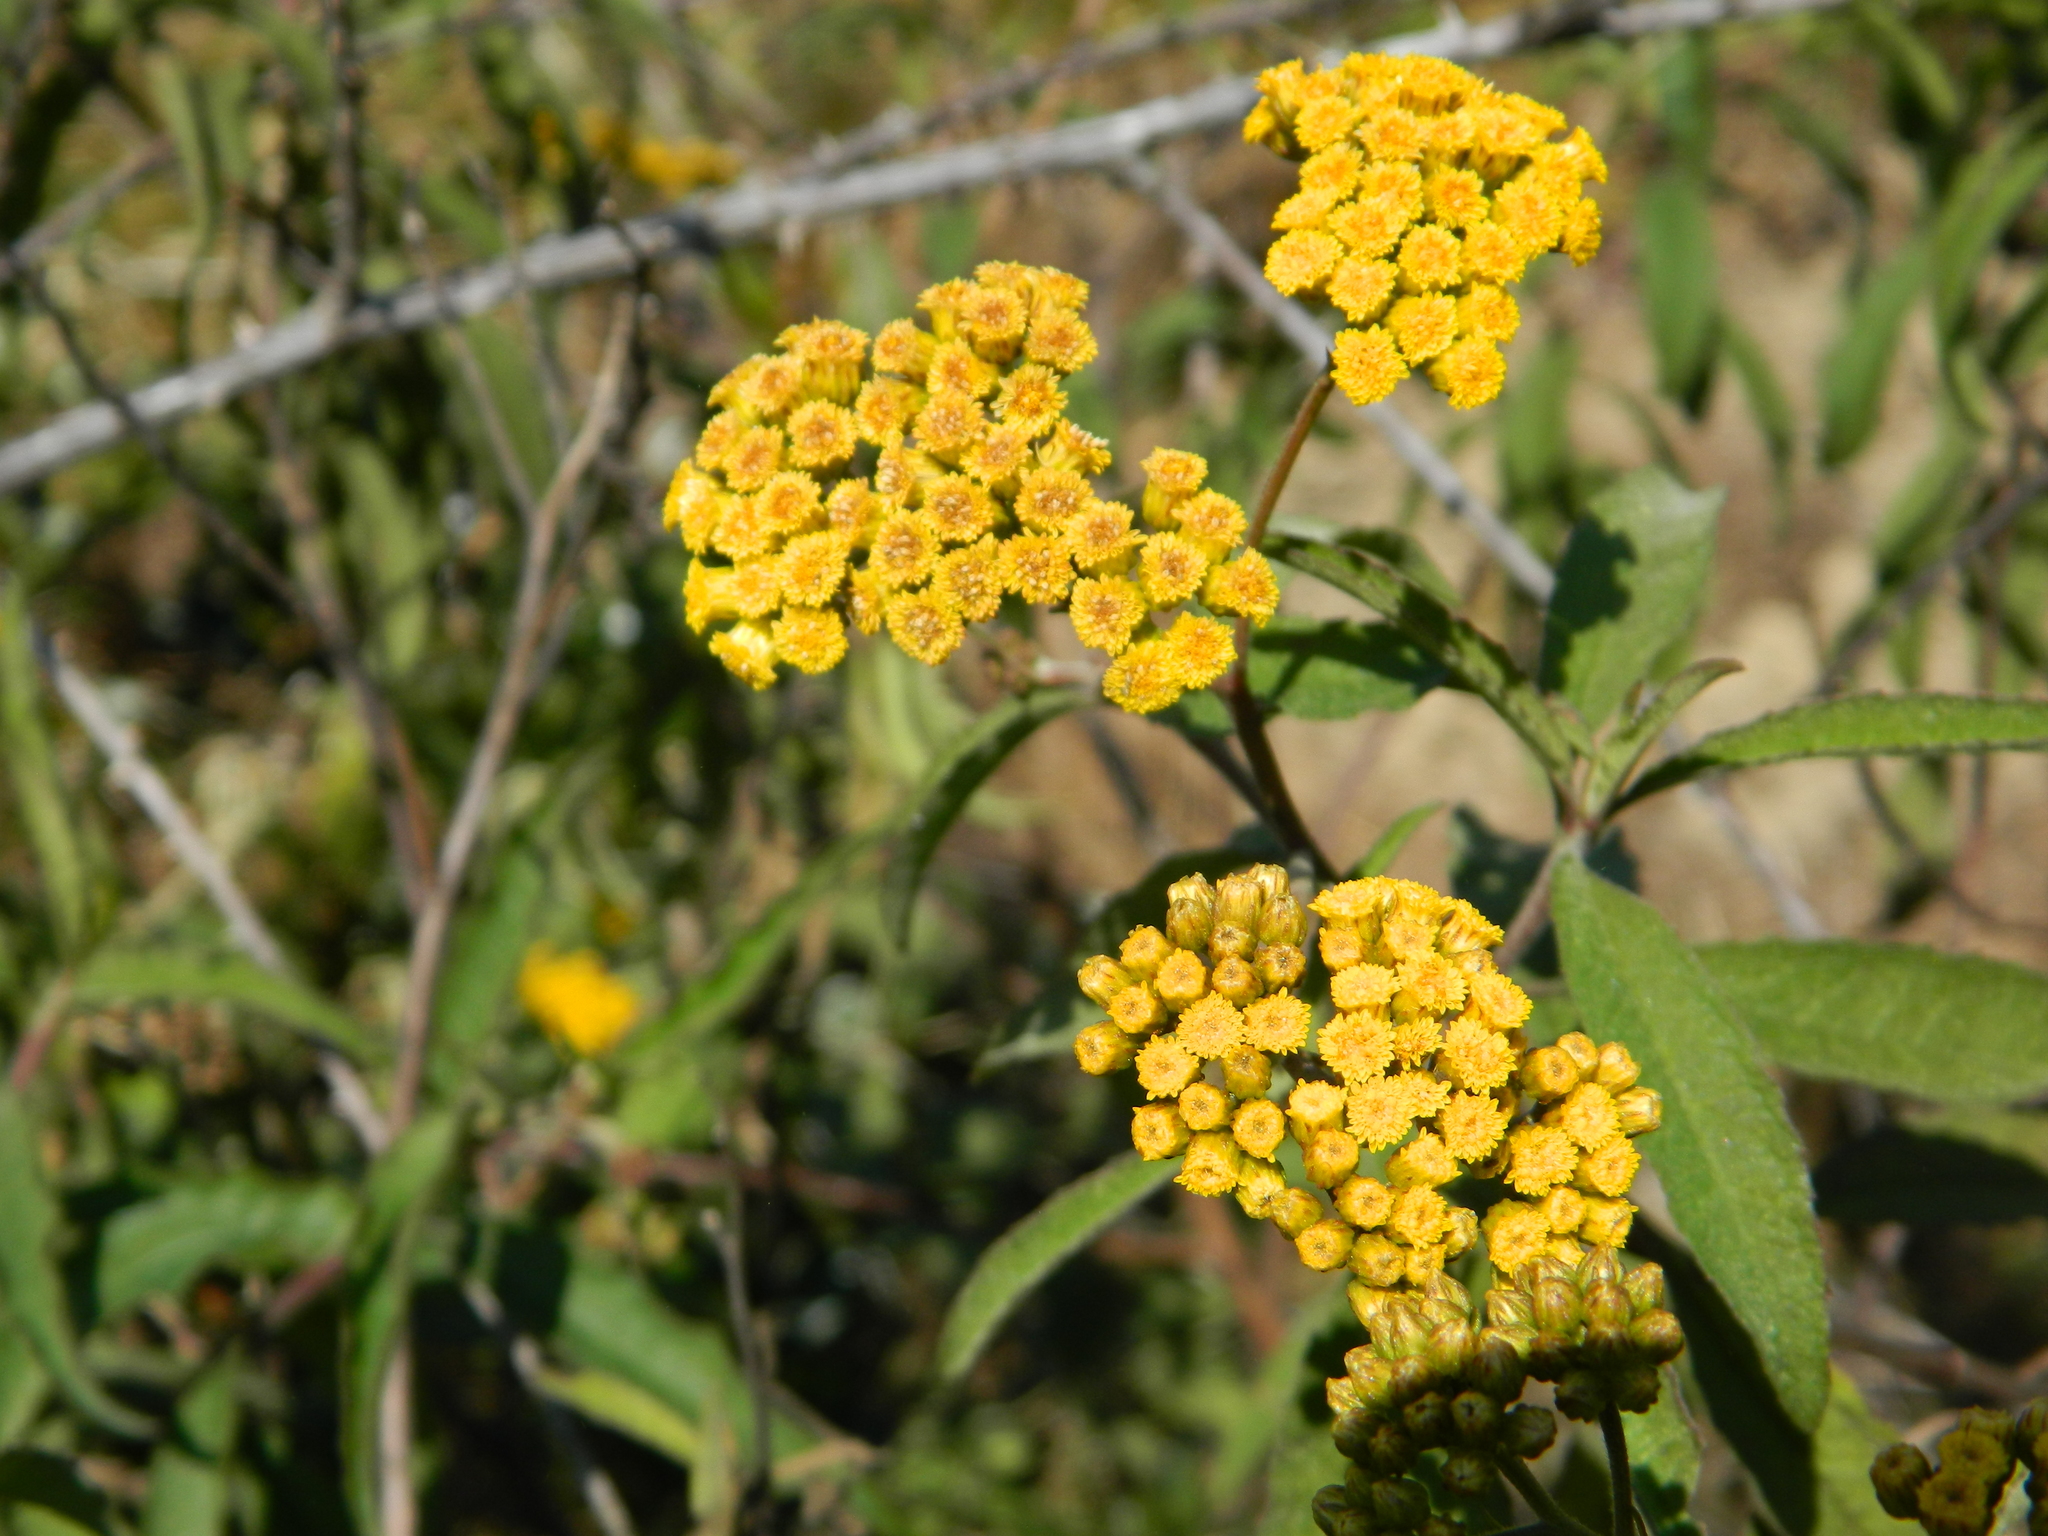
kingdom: Plantae
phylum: Tracheophyta
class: Magnoliopsida
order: Asterales
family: Asteraceae
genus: Psiadia
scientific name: Psiadia salviifolia
